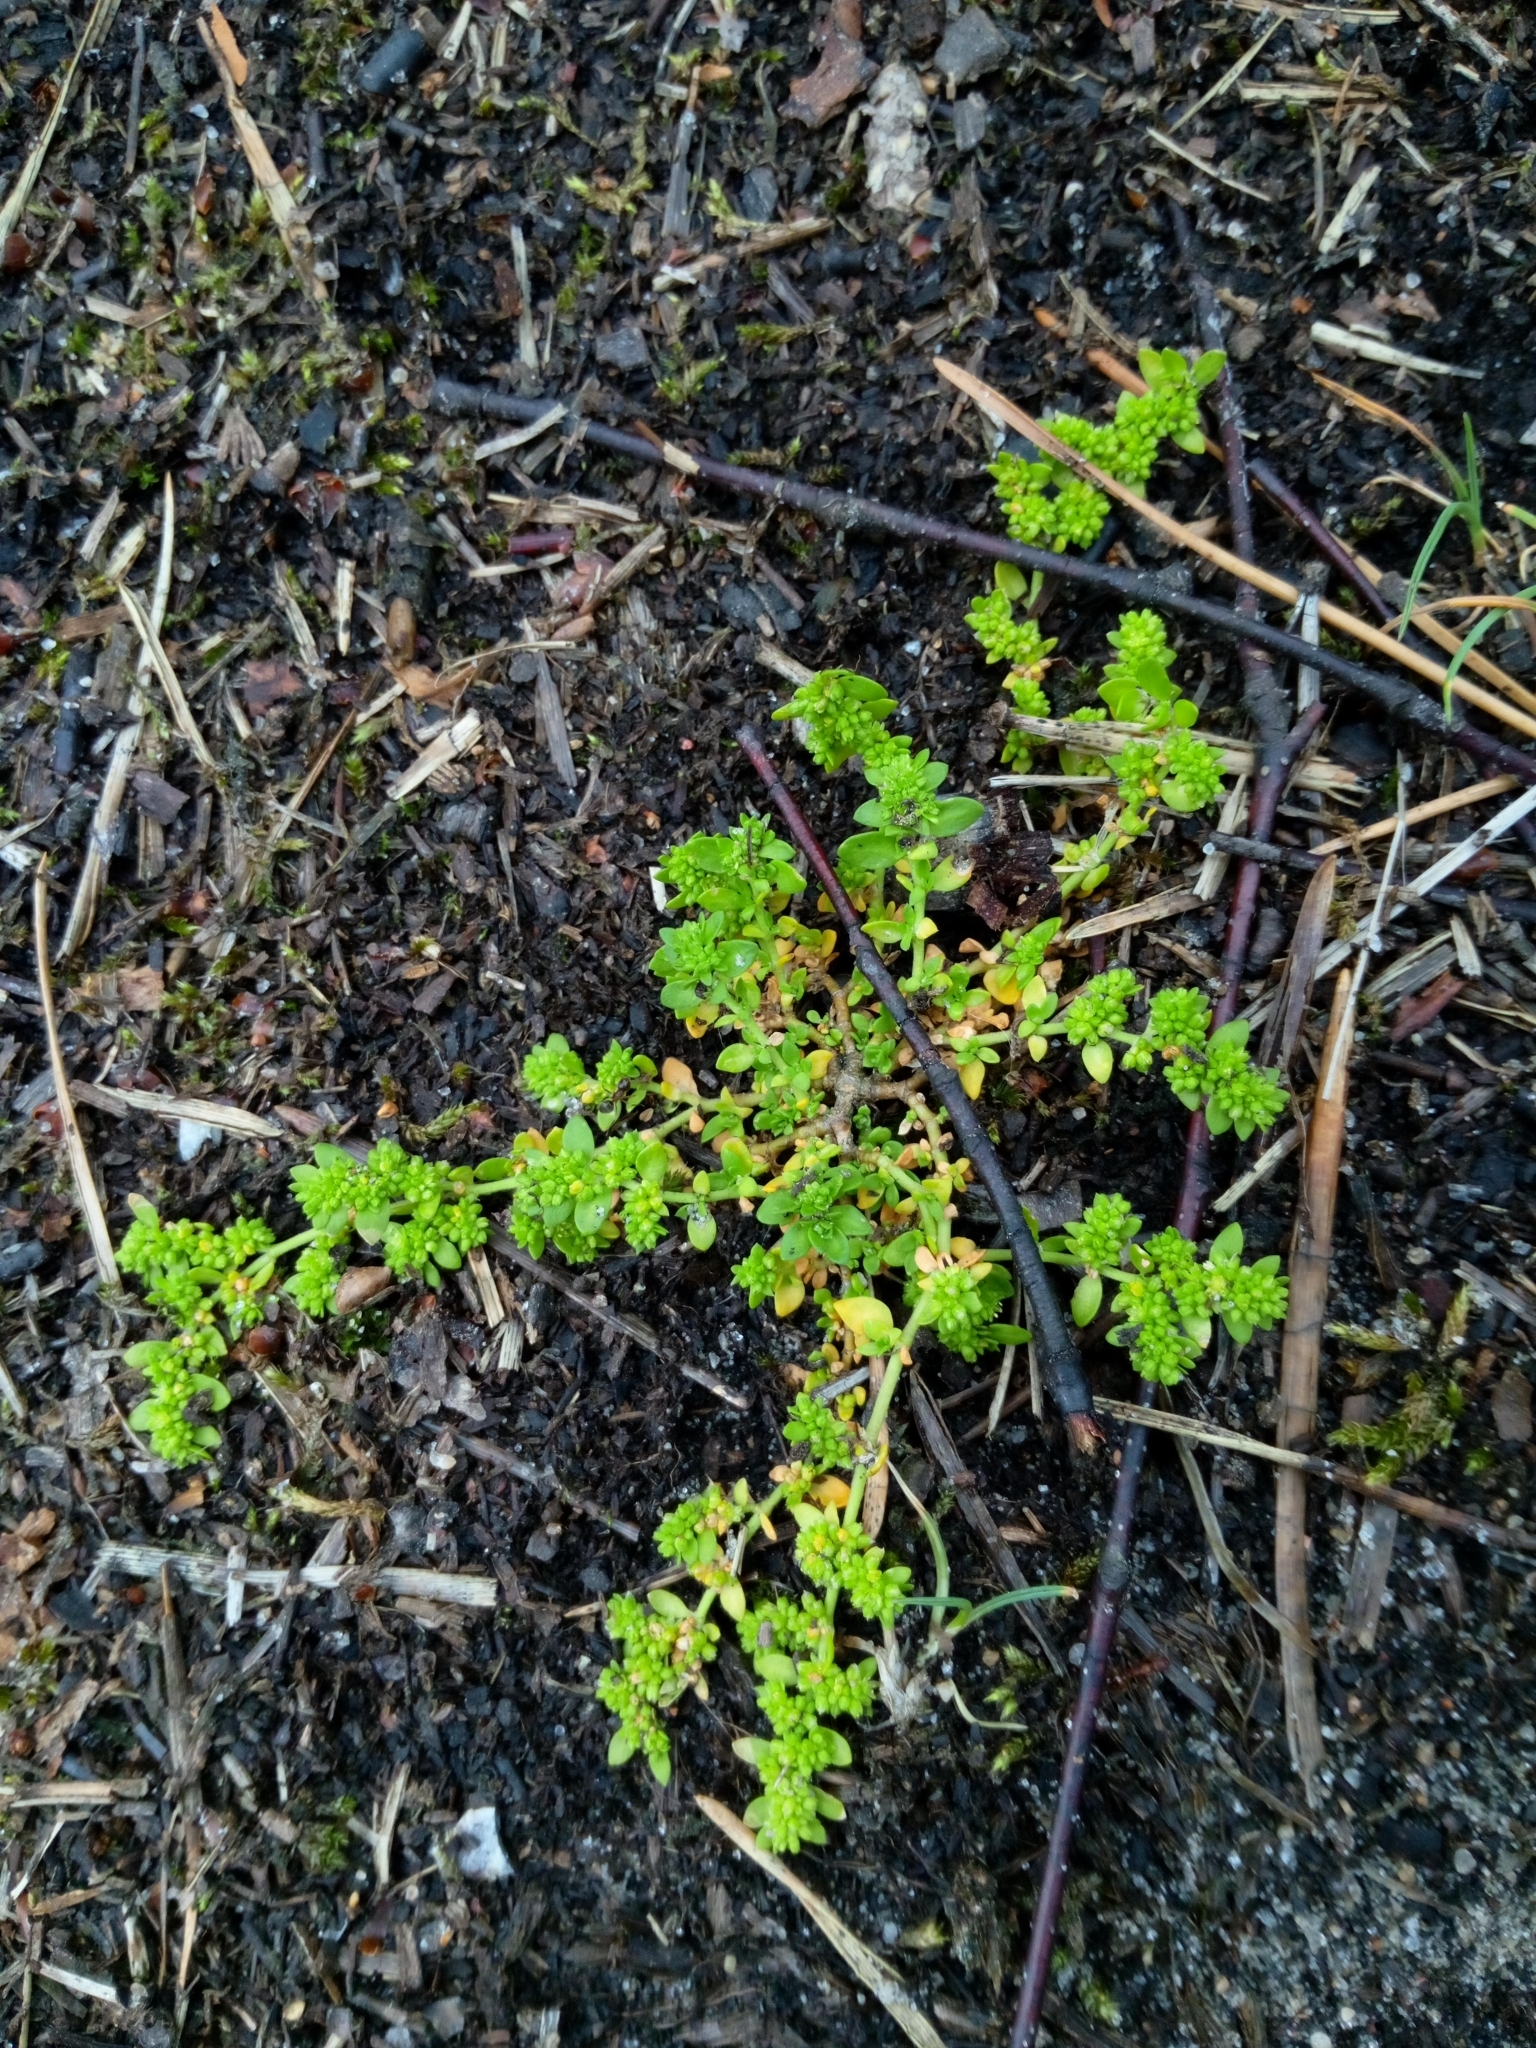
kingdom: Plantae
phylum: Tracheophyta
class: Magnoliopsida
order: Caryophyllales
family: Caryophyllaceae
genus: Herniaria
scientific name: Herniaria glabra
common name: Smooth rupturewort
